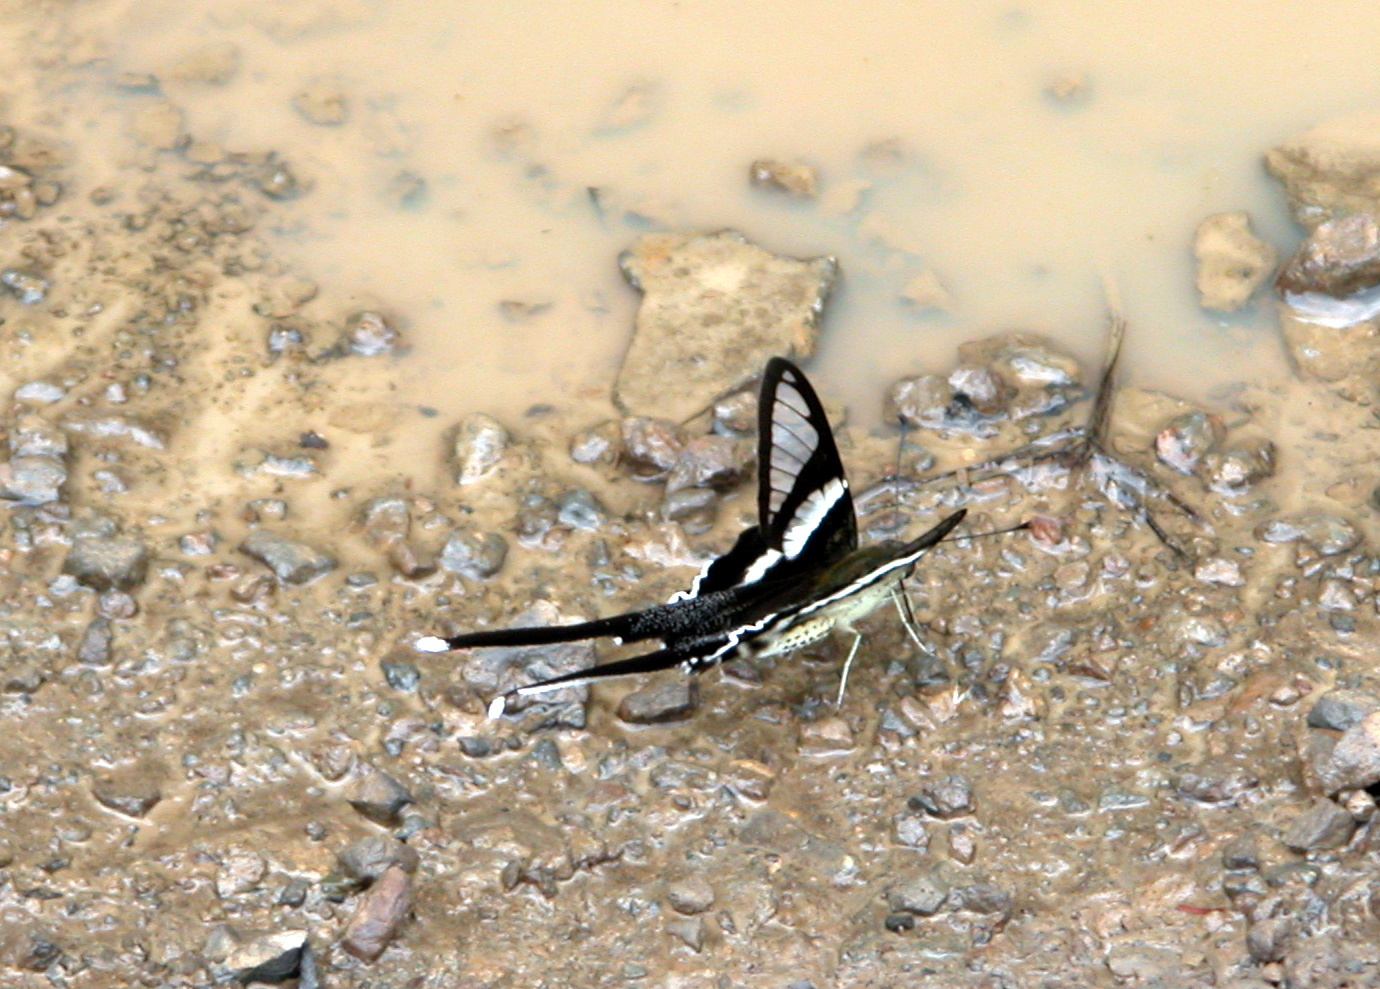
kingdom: Animalia
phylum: Arthropoda
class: Insecta
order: Lepidoptera
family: Papilionidae
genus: Lamproptera
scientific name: Lamproptera curius
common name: White dragontail
